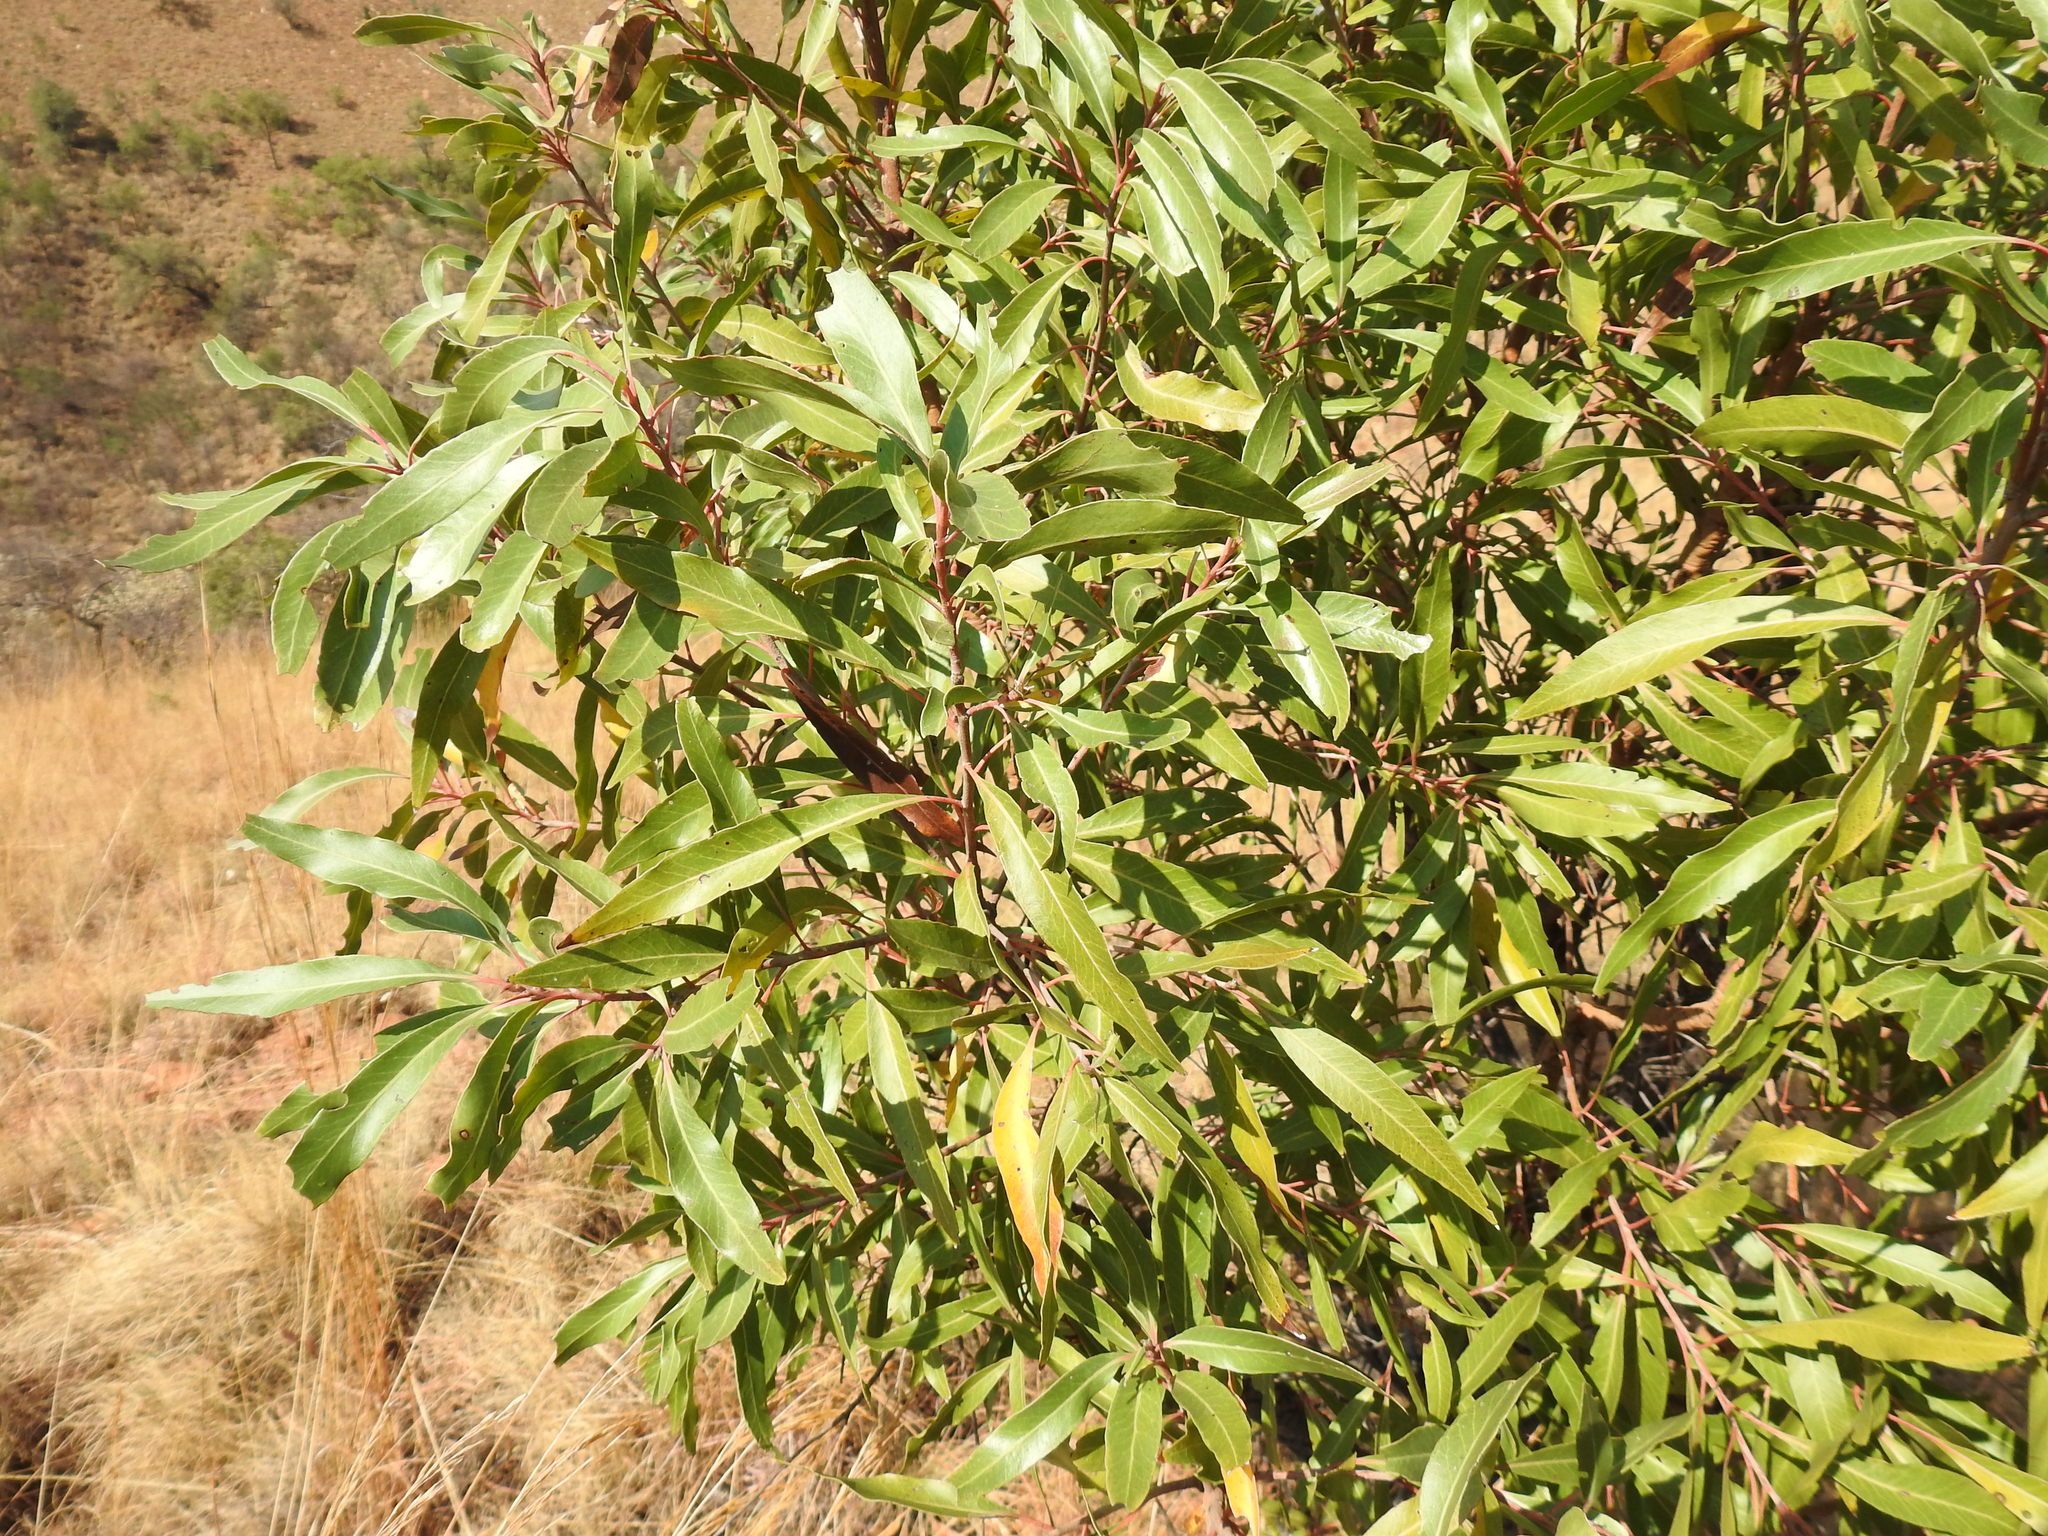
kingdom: Plantae
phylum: Tracheophyta
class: Magnoliopsida
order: Proteales
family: Proteaceae
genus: Faurea
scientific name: Faurea saligna
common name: African bean
